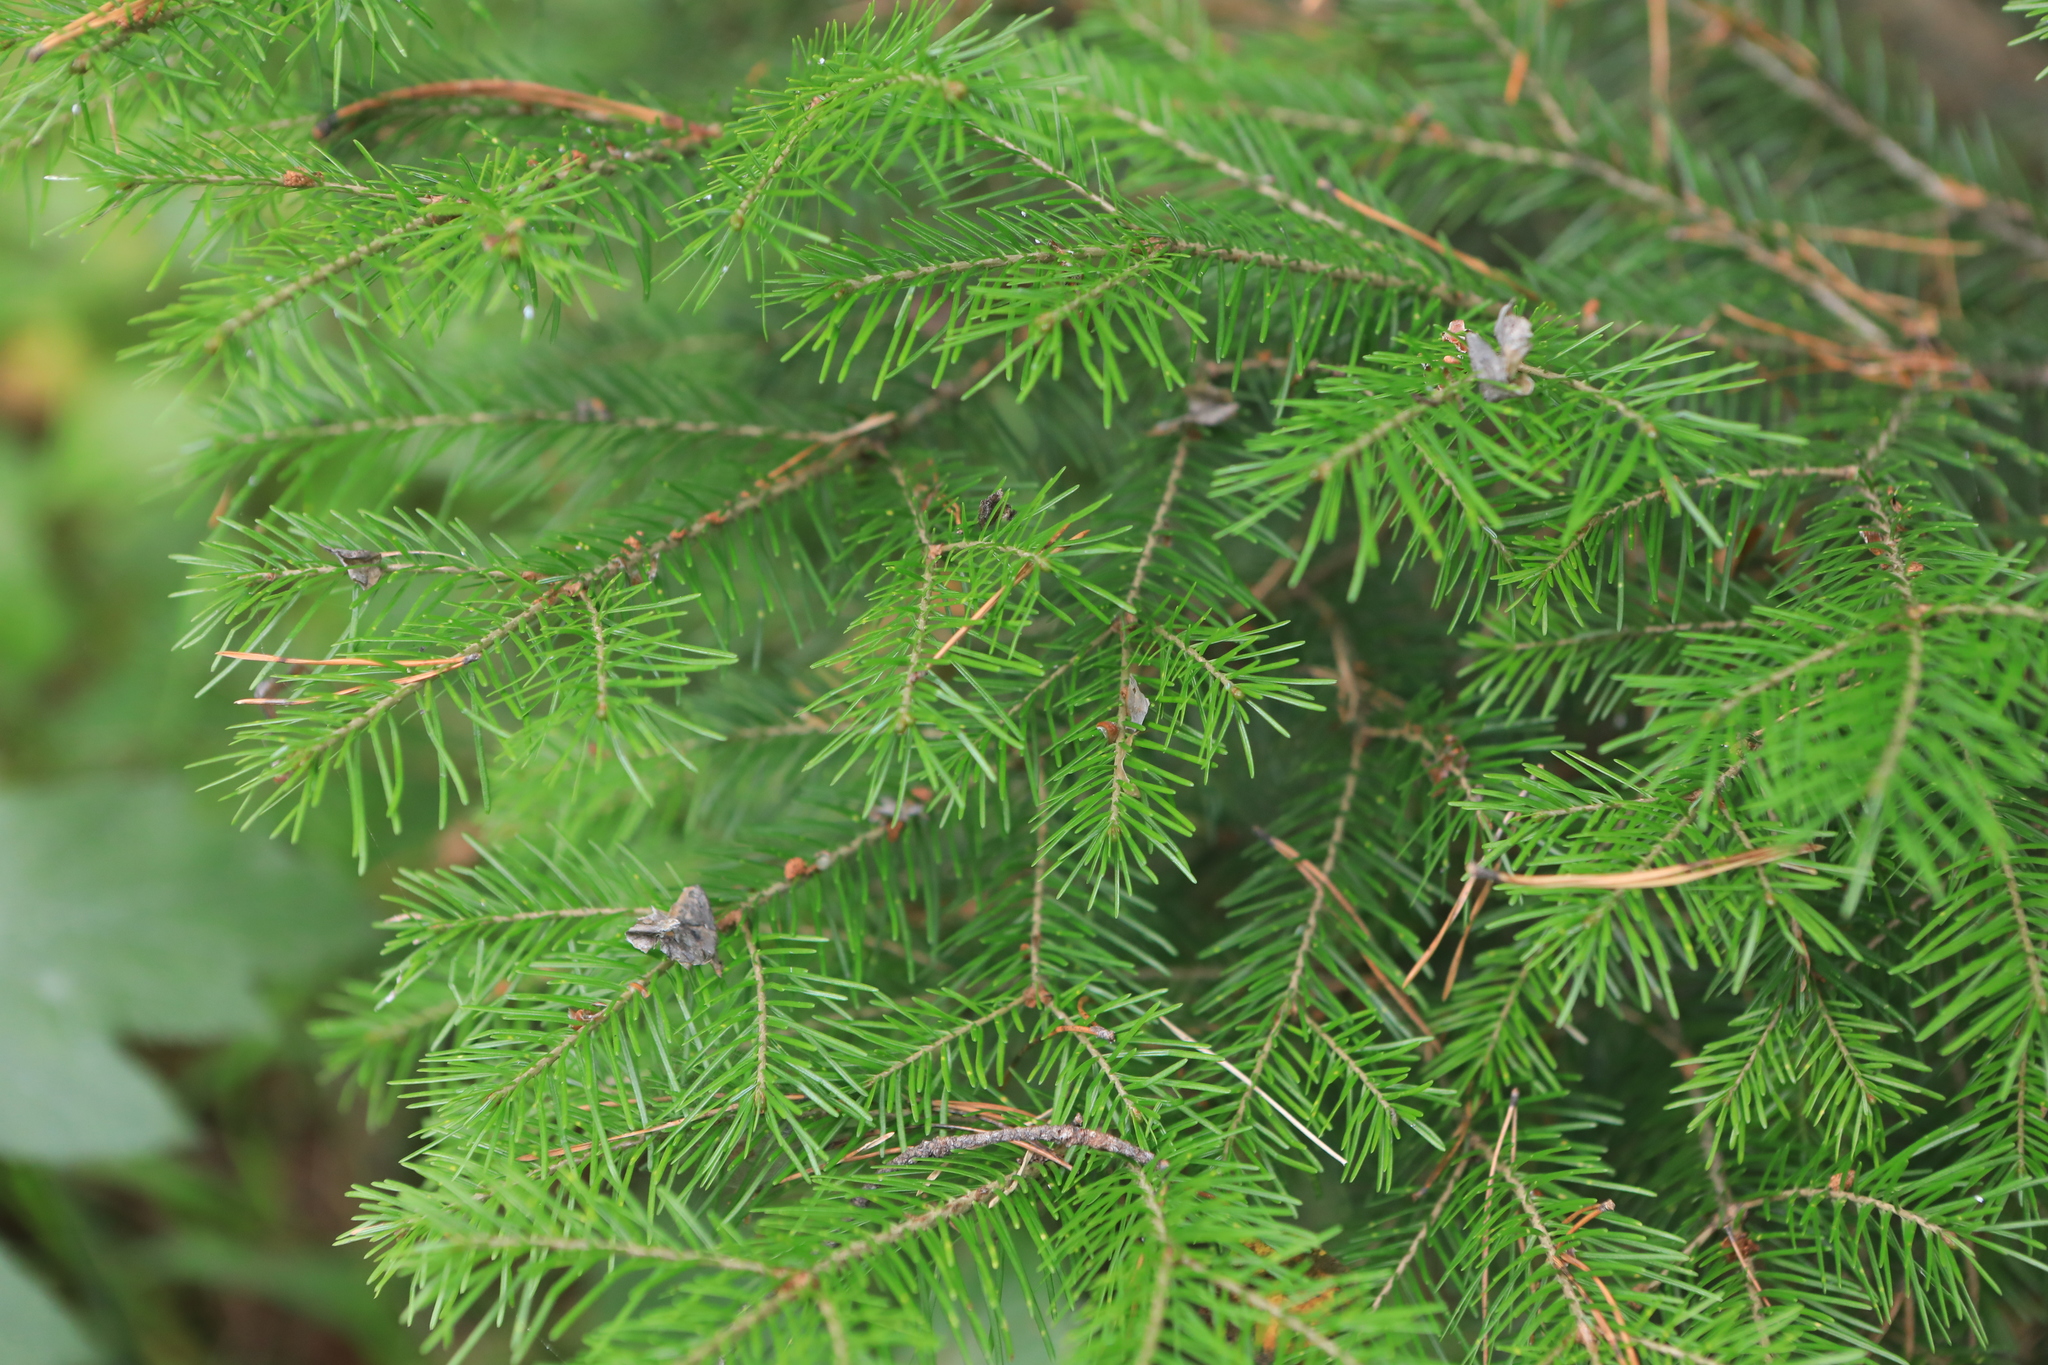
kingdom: Plantae
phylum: Tracheophyta
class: Pinopsida
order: Pinales
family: Pinaceae
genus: Abies
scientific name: Abies sibirica
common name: Siberian fir
